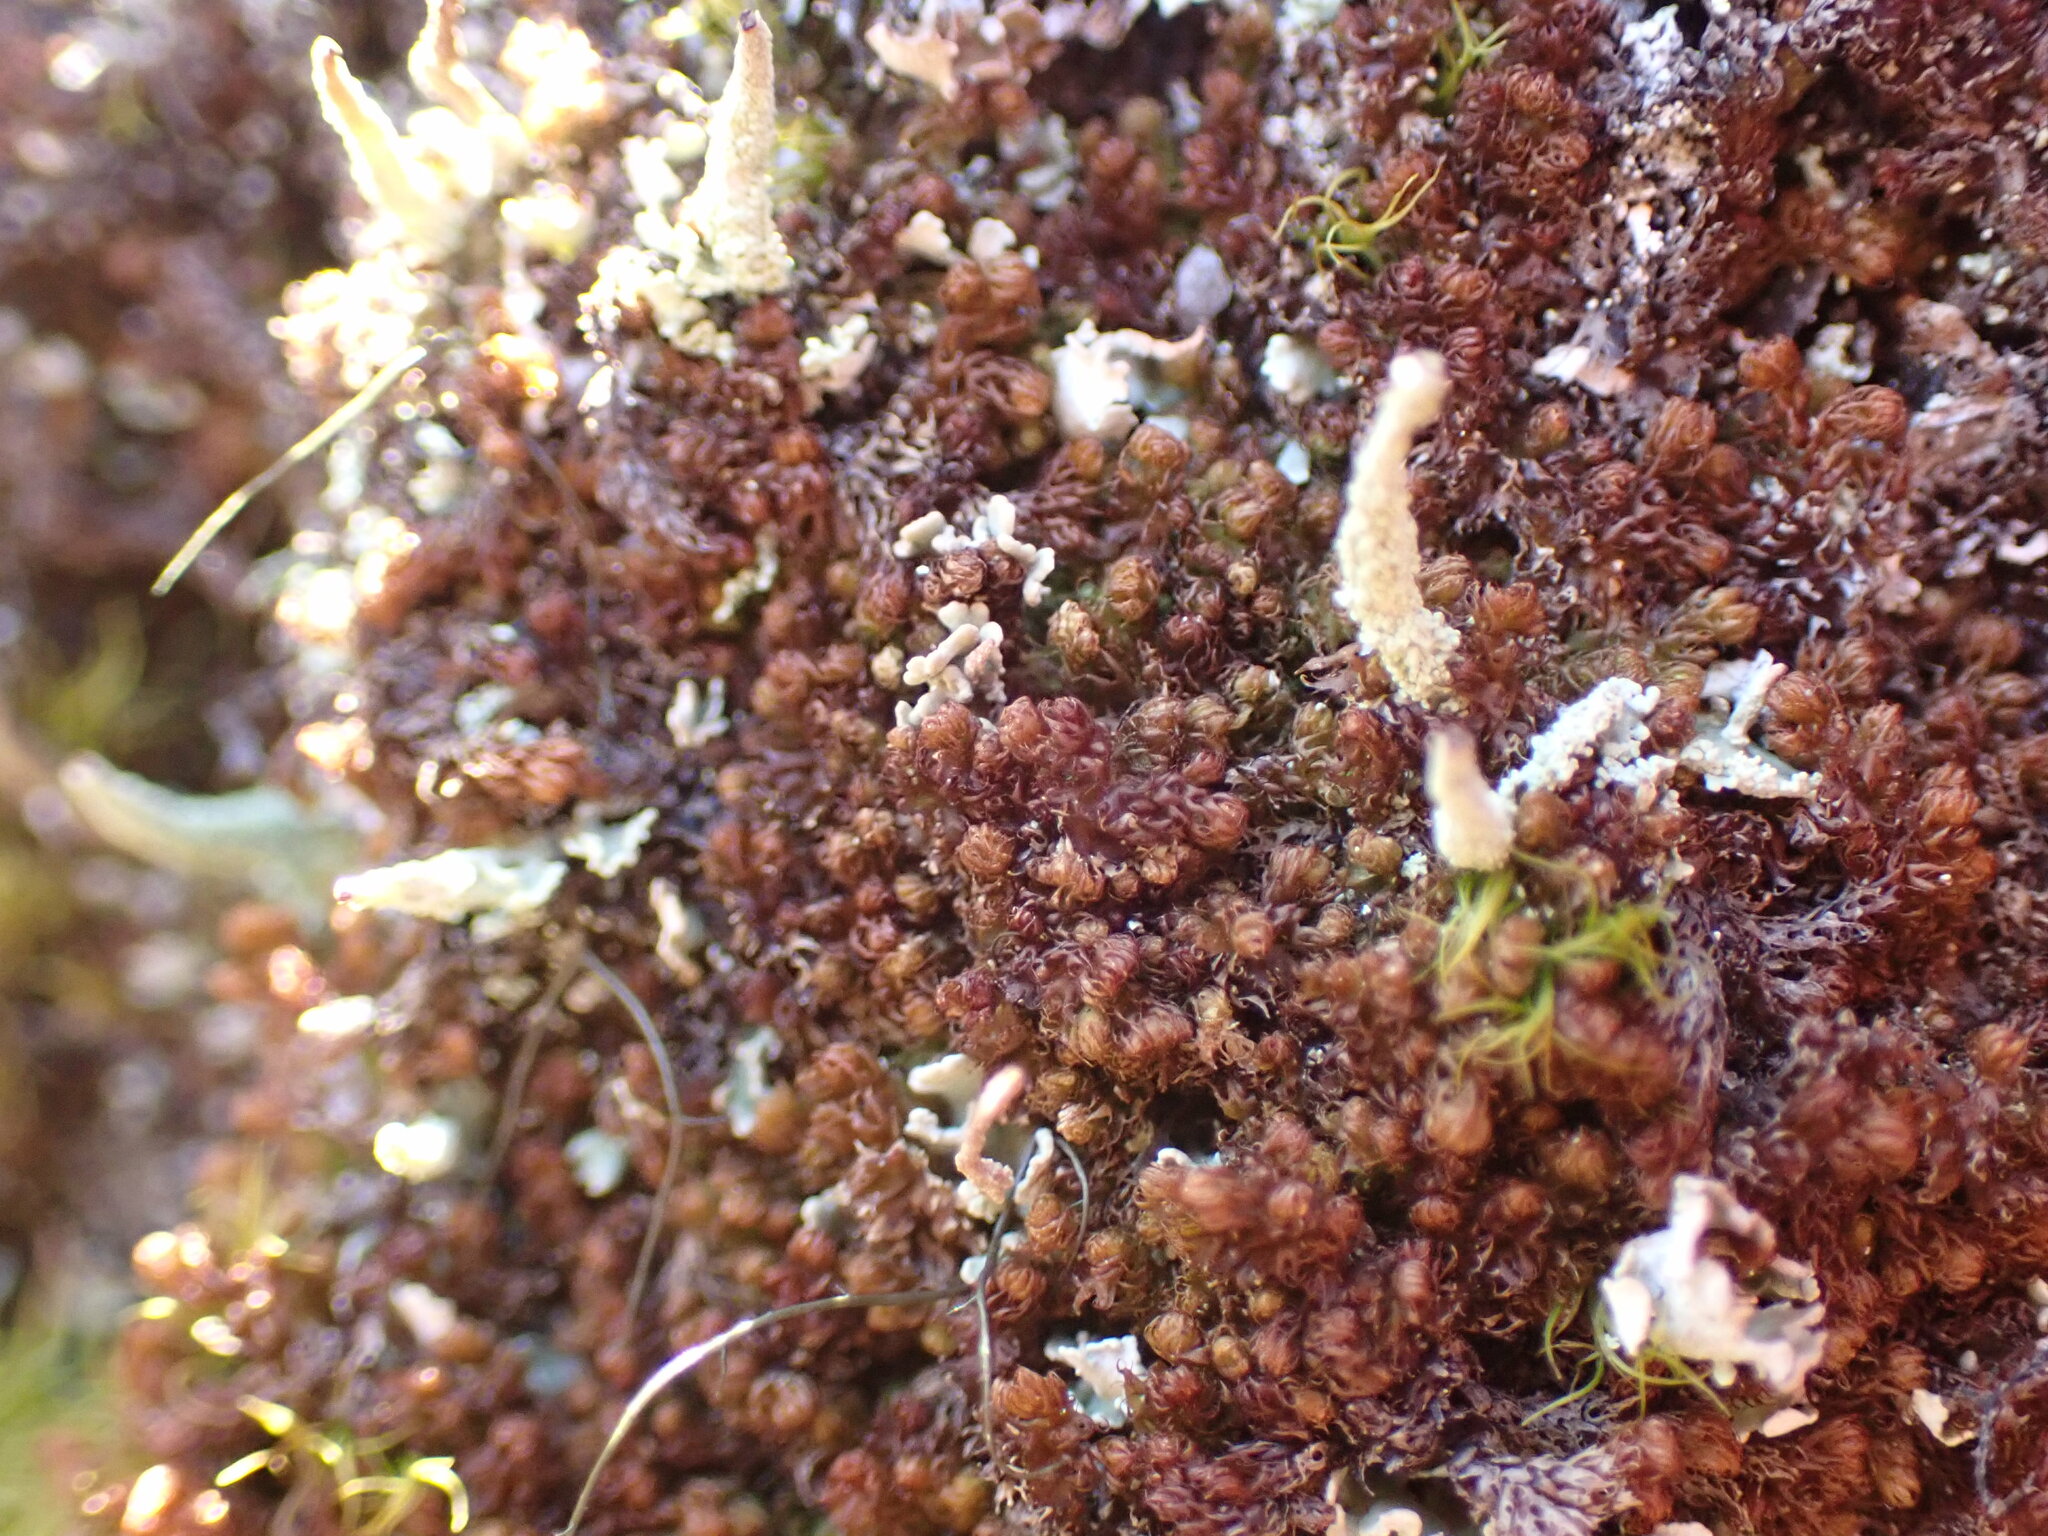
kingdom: Plantae
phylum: Marchantiophyta
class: Jungermanniopsida
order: Ptilidiales
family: Ptilidiaceae
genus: Ptilidium
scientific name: Ptilidium californicum
